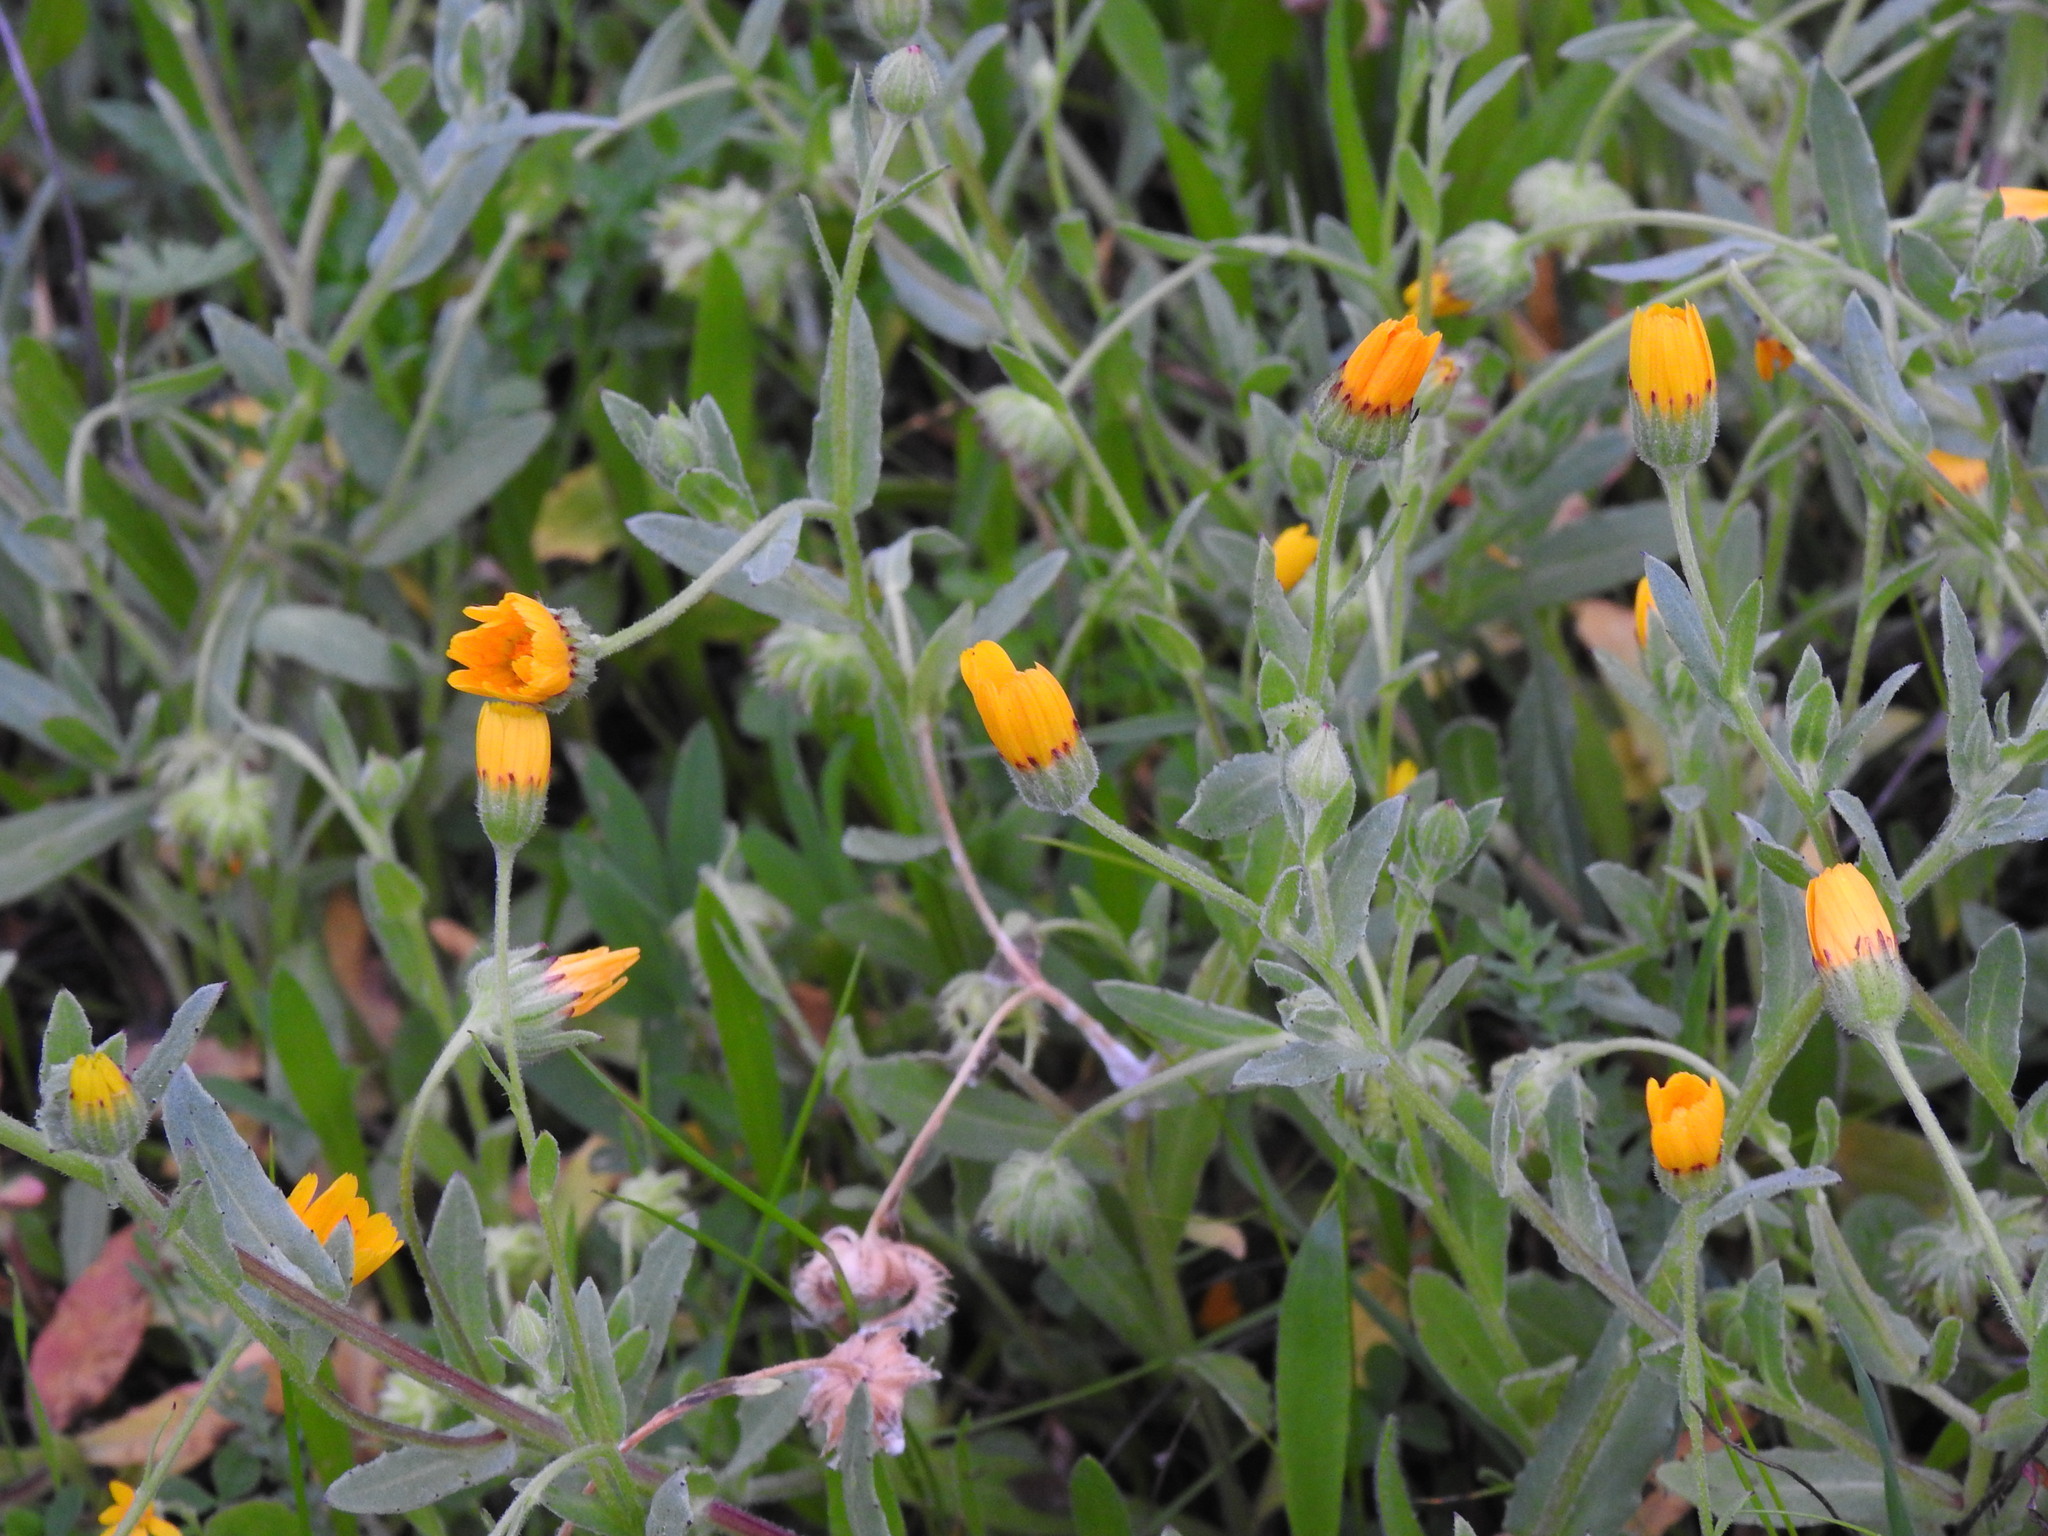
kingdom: Plantae
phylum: Tracheophyta
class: Magnoliopsida
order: Asterales
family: Asteraceae
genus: Calendula
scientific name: Calendula arvensis
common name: Field marigold
